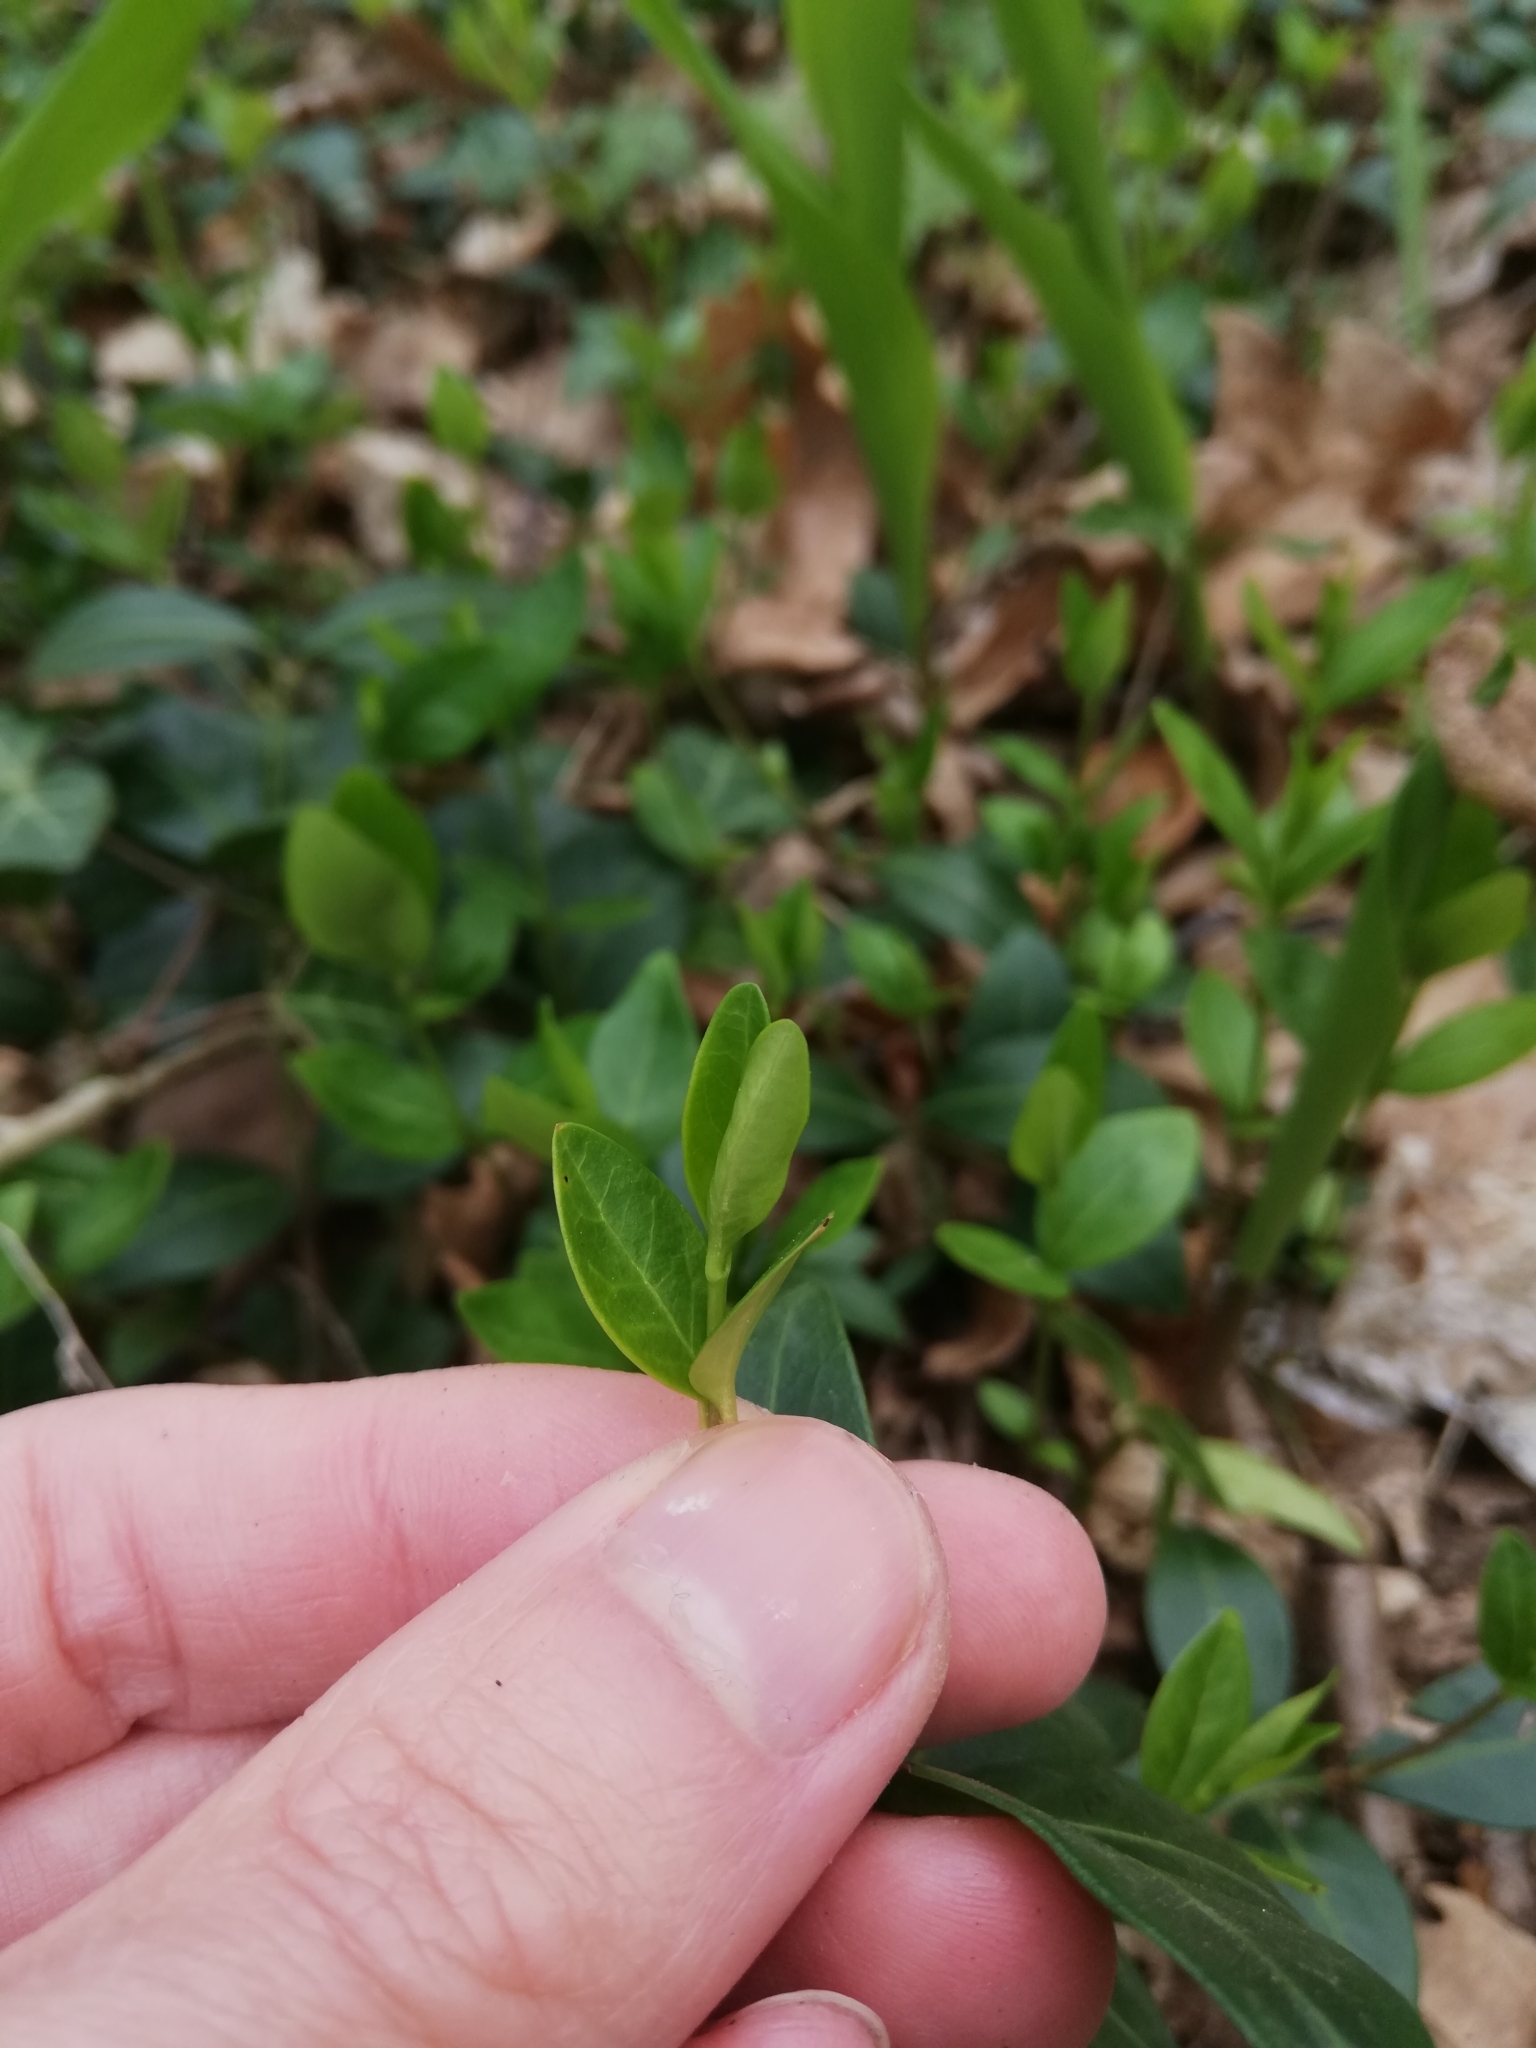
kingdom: Plantae
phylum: Tracheophyta
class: Magnoliopsida
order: Gentianales
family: Apocynaceae
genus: Vinca
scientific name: Vinca minor
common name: Lesser periwinkle
